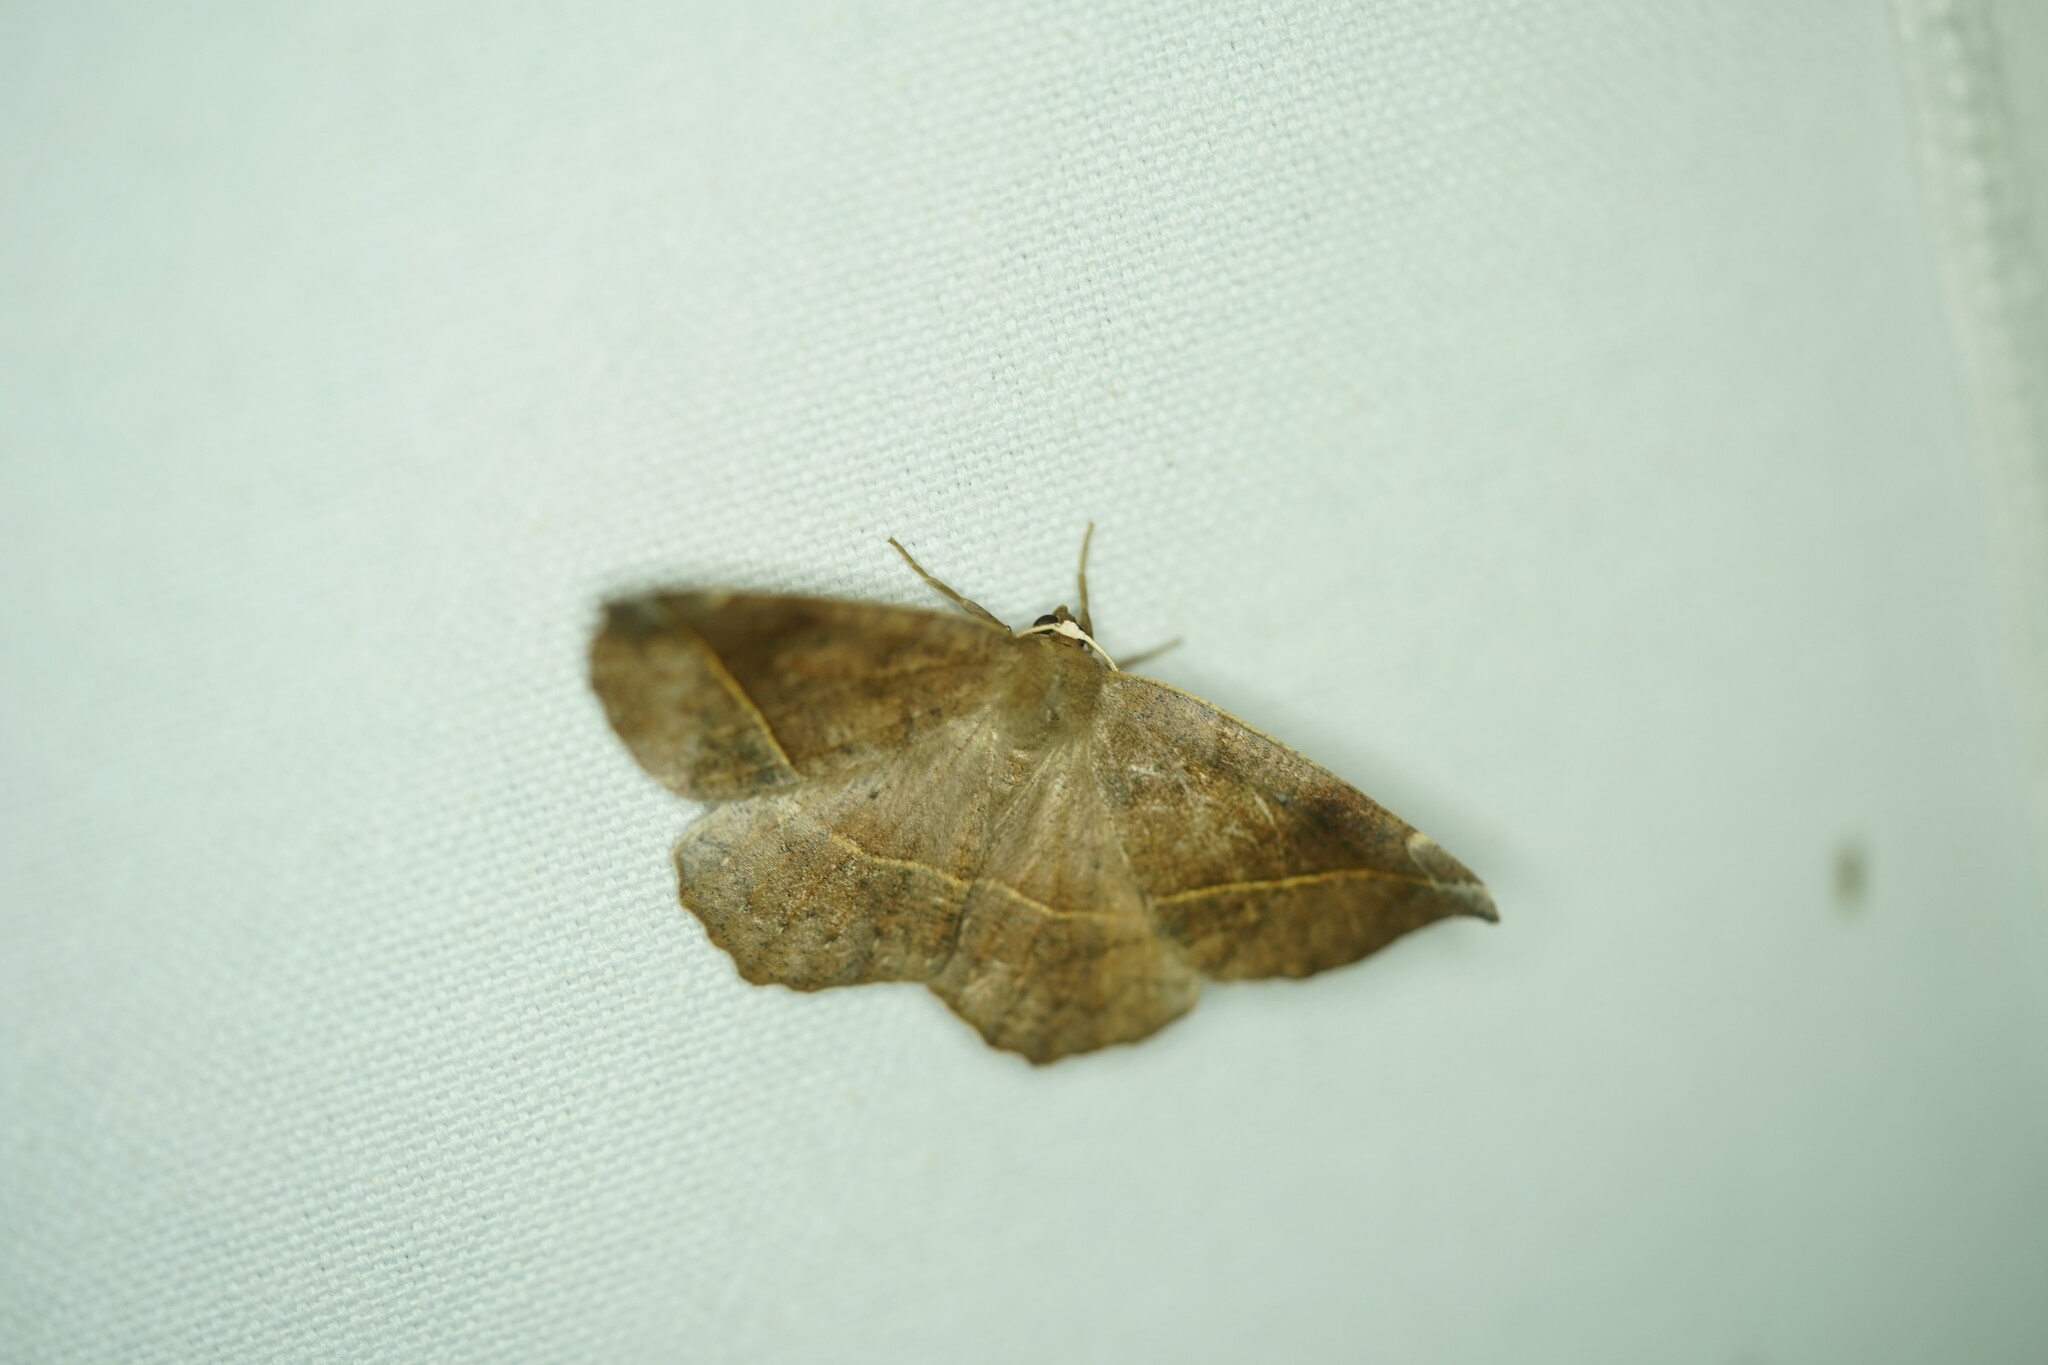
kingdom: Animalia
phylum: Arthropoda
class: Insecta
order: Lepidoptera
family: Geometridae
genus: Eutrapela
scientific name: Eutrapela clemataria
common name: Curved-toothed geometer
